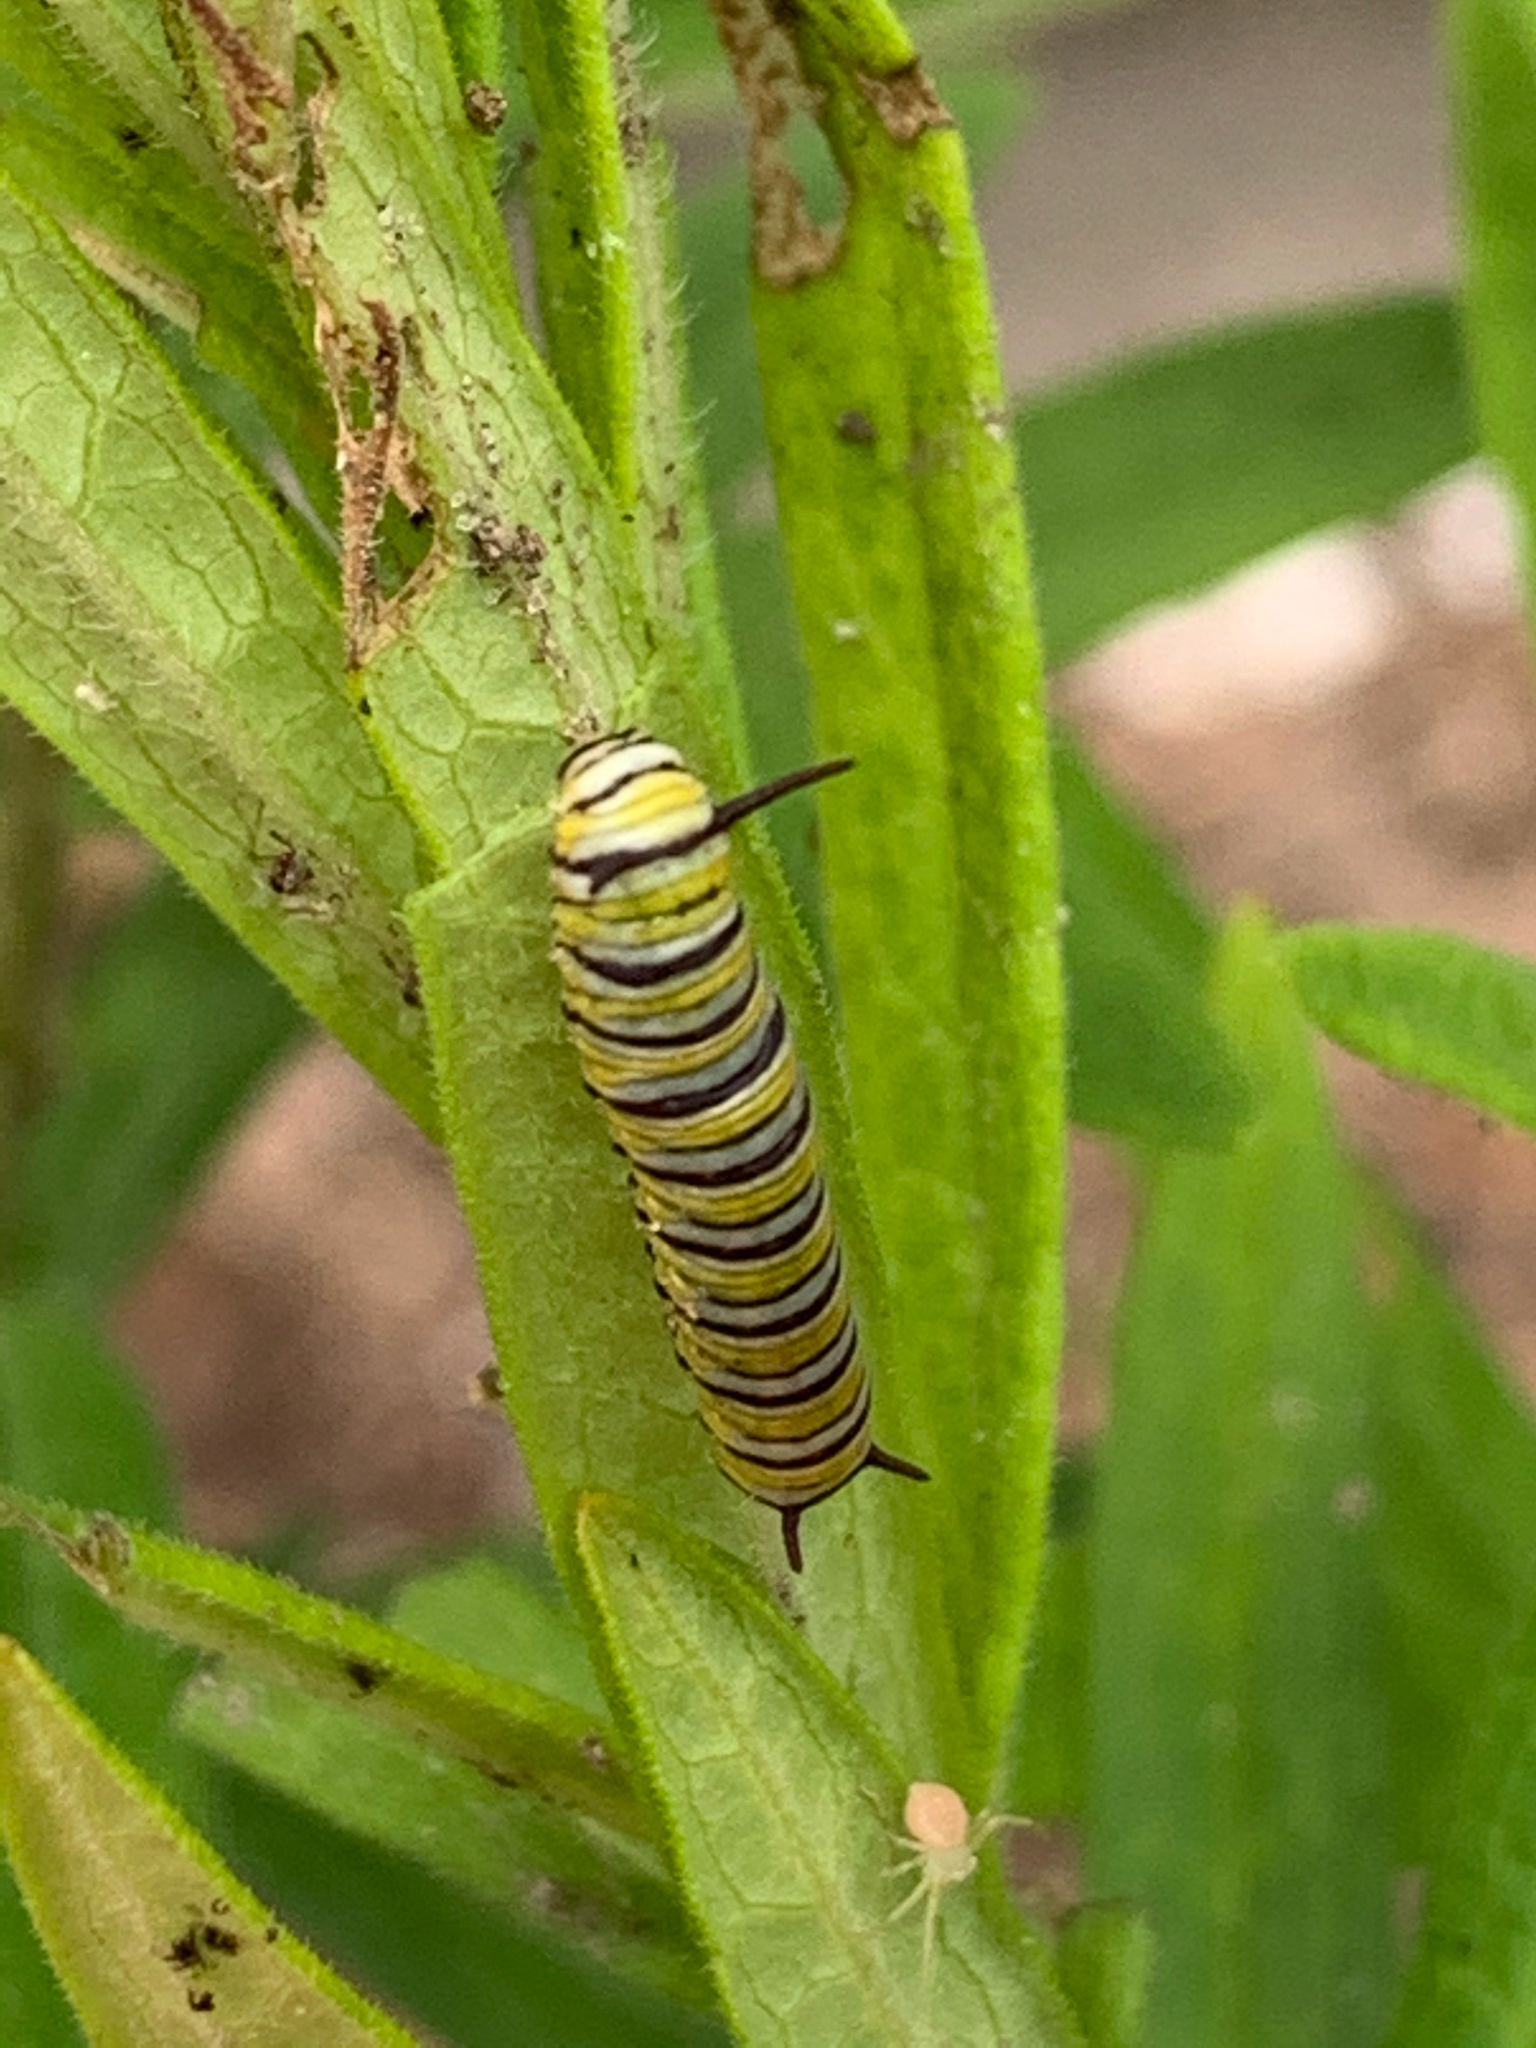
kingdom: Animalia
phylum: Arthropoda
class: Insecta
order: Lepidoptera
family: Nymphalidae
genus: Danaus
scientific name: Danaus plexippus
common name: Monarch
